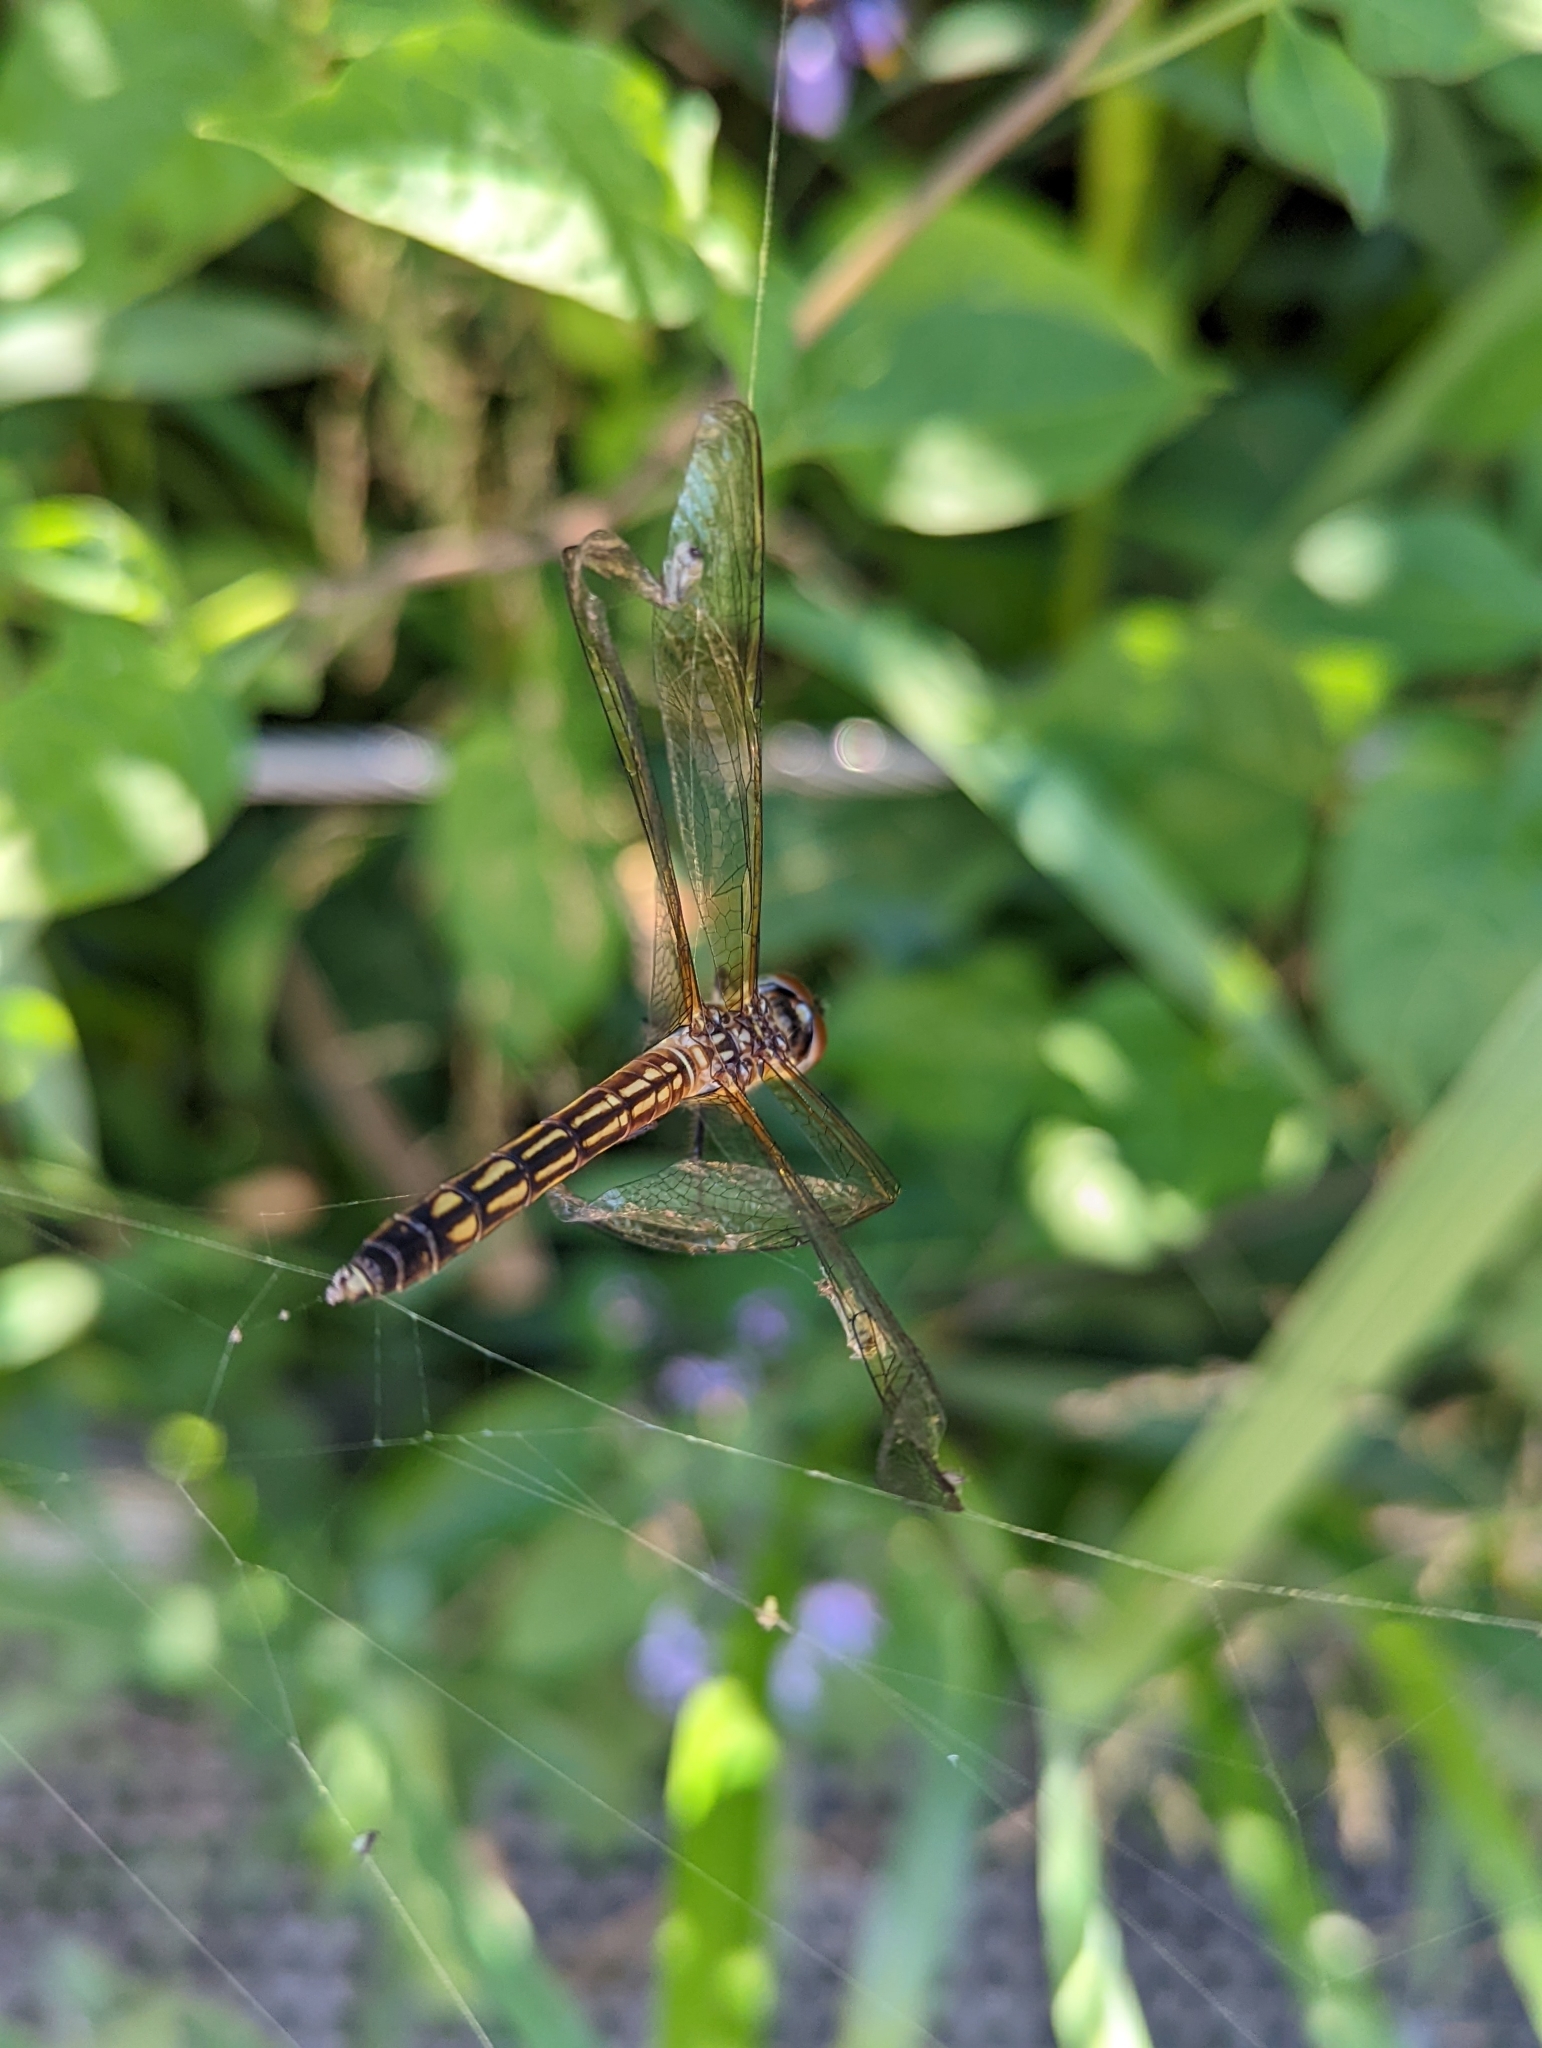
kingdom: Animalia
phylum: Arthropoda
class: Insecta
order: Odonata
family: Libellulidae
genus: Pachydiplax
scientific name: Pachydiplax longipennis
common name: Blue dasher
